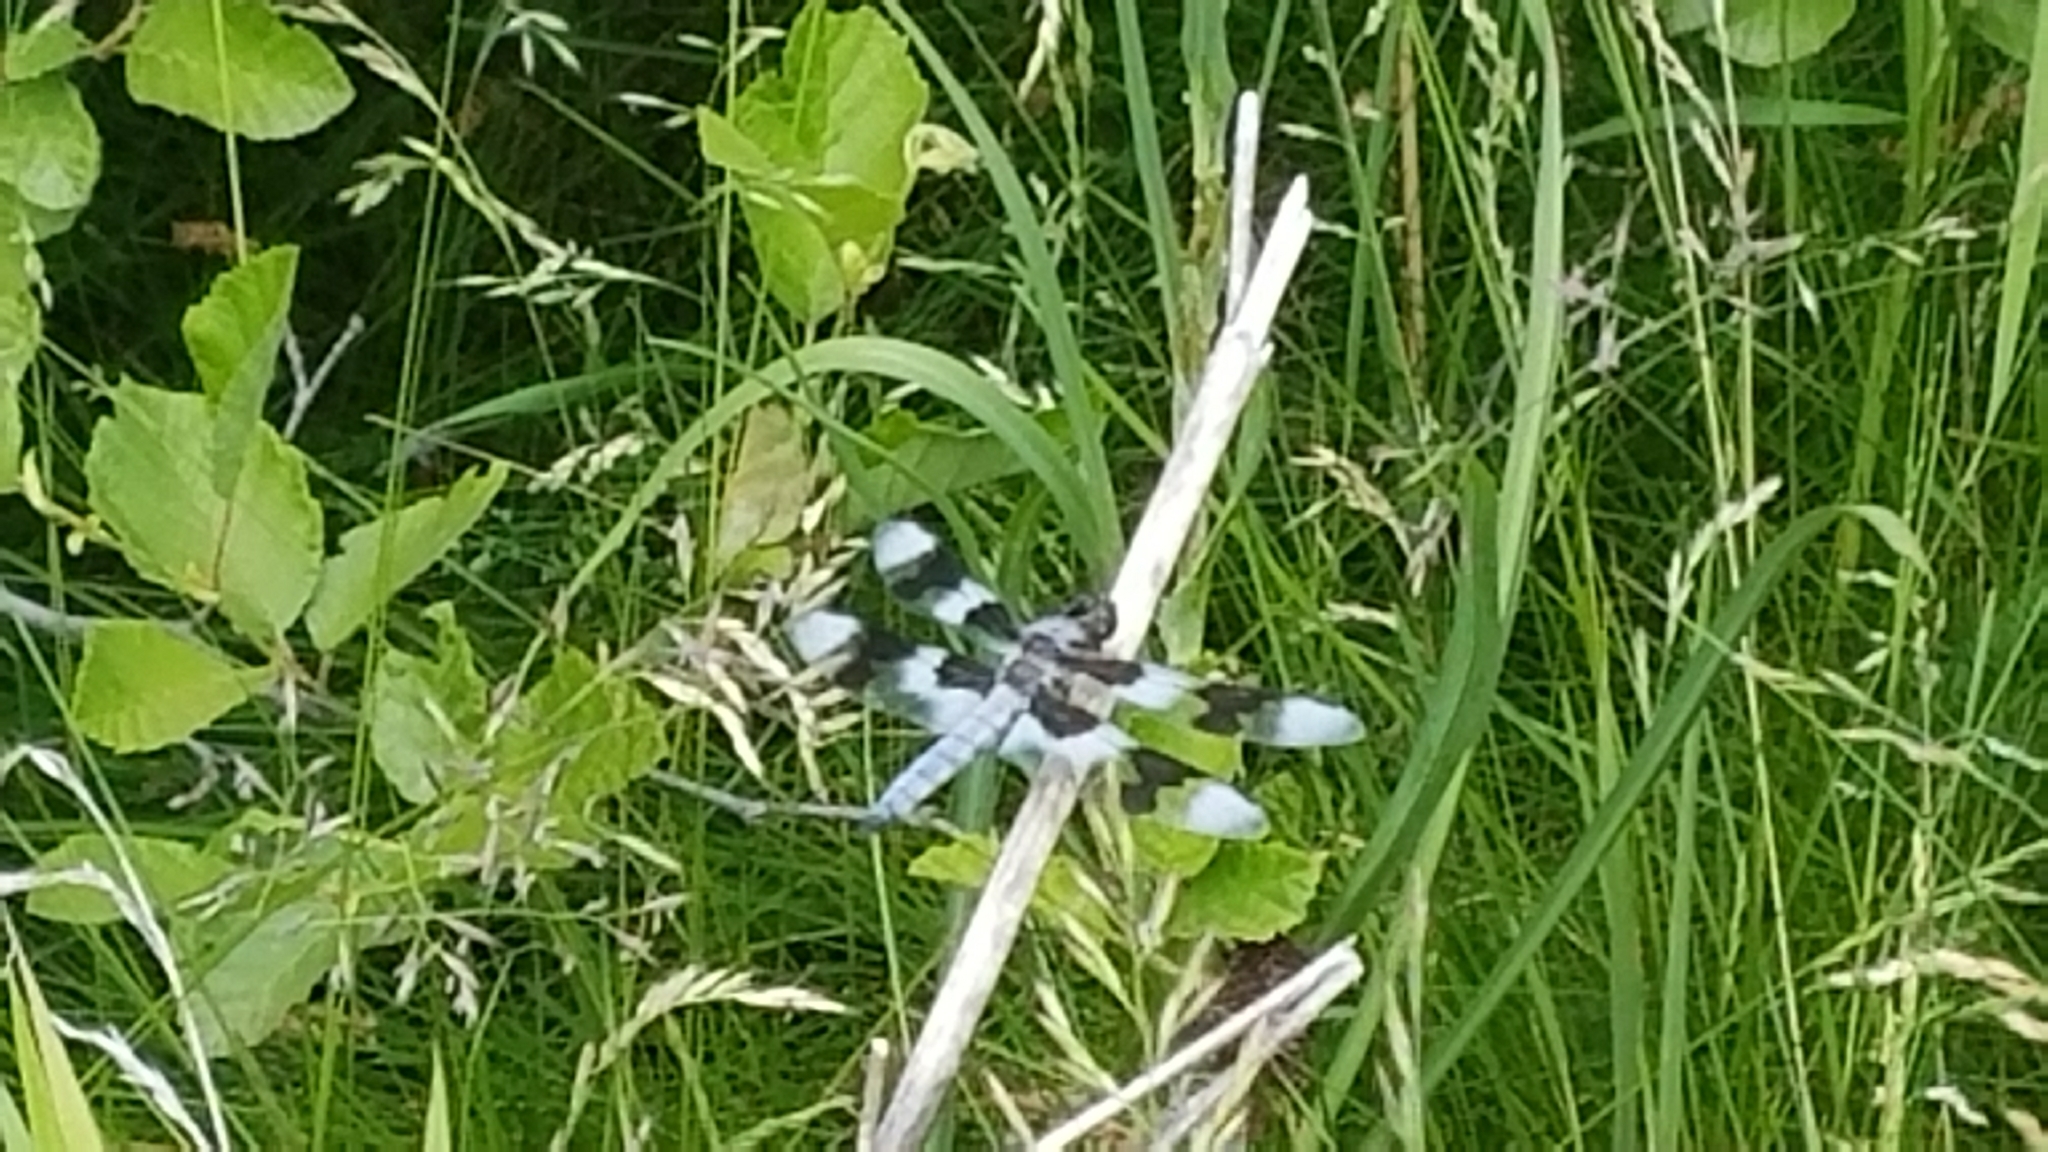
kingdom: Animalia
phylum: Arthropoda
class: Insecta
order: Odonata
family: Libellulidae
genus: Libellula
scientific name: Libellula forensis
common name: Eight-spotted skimmer
